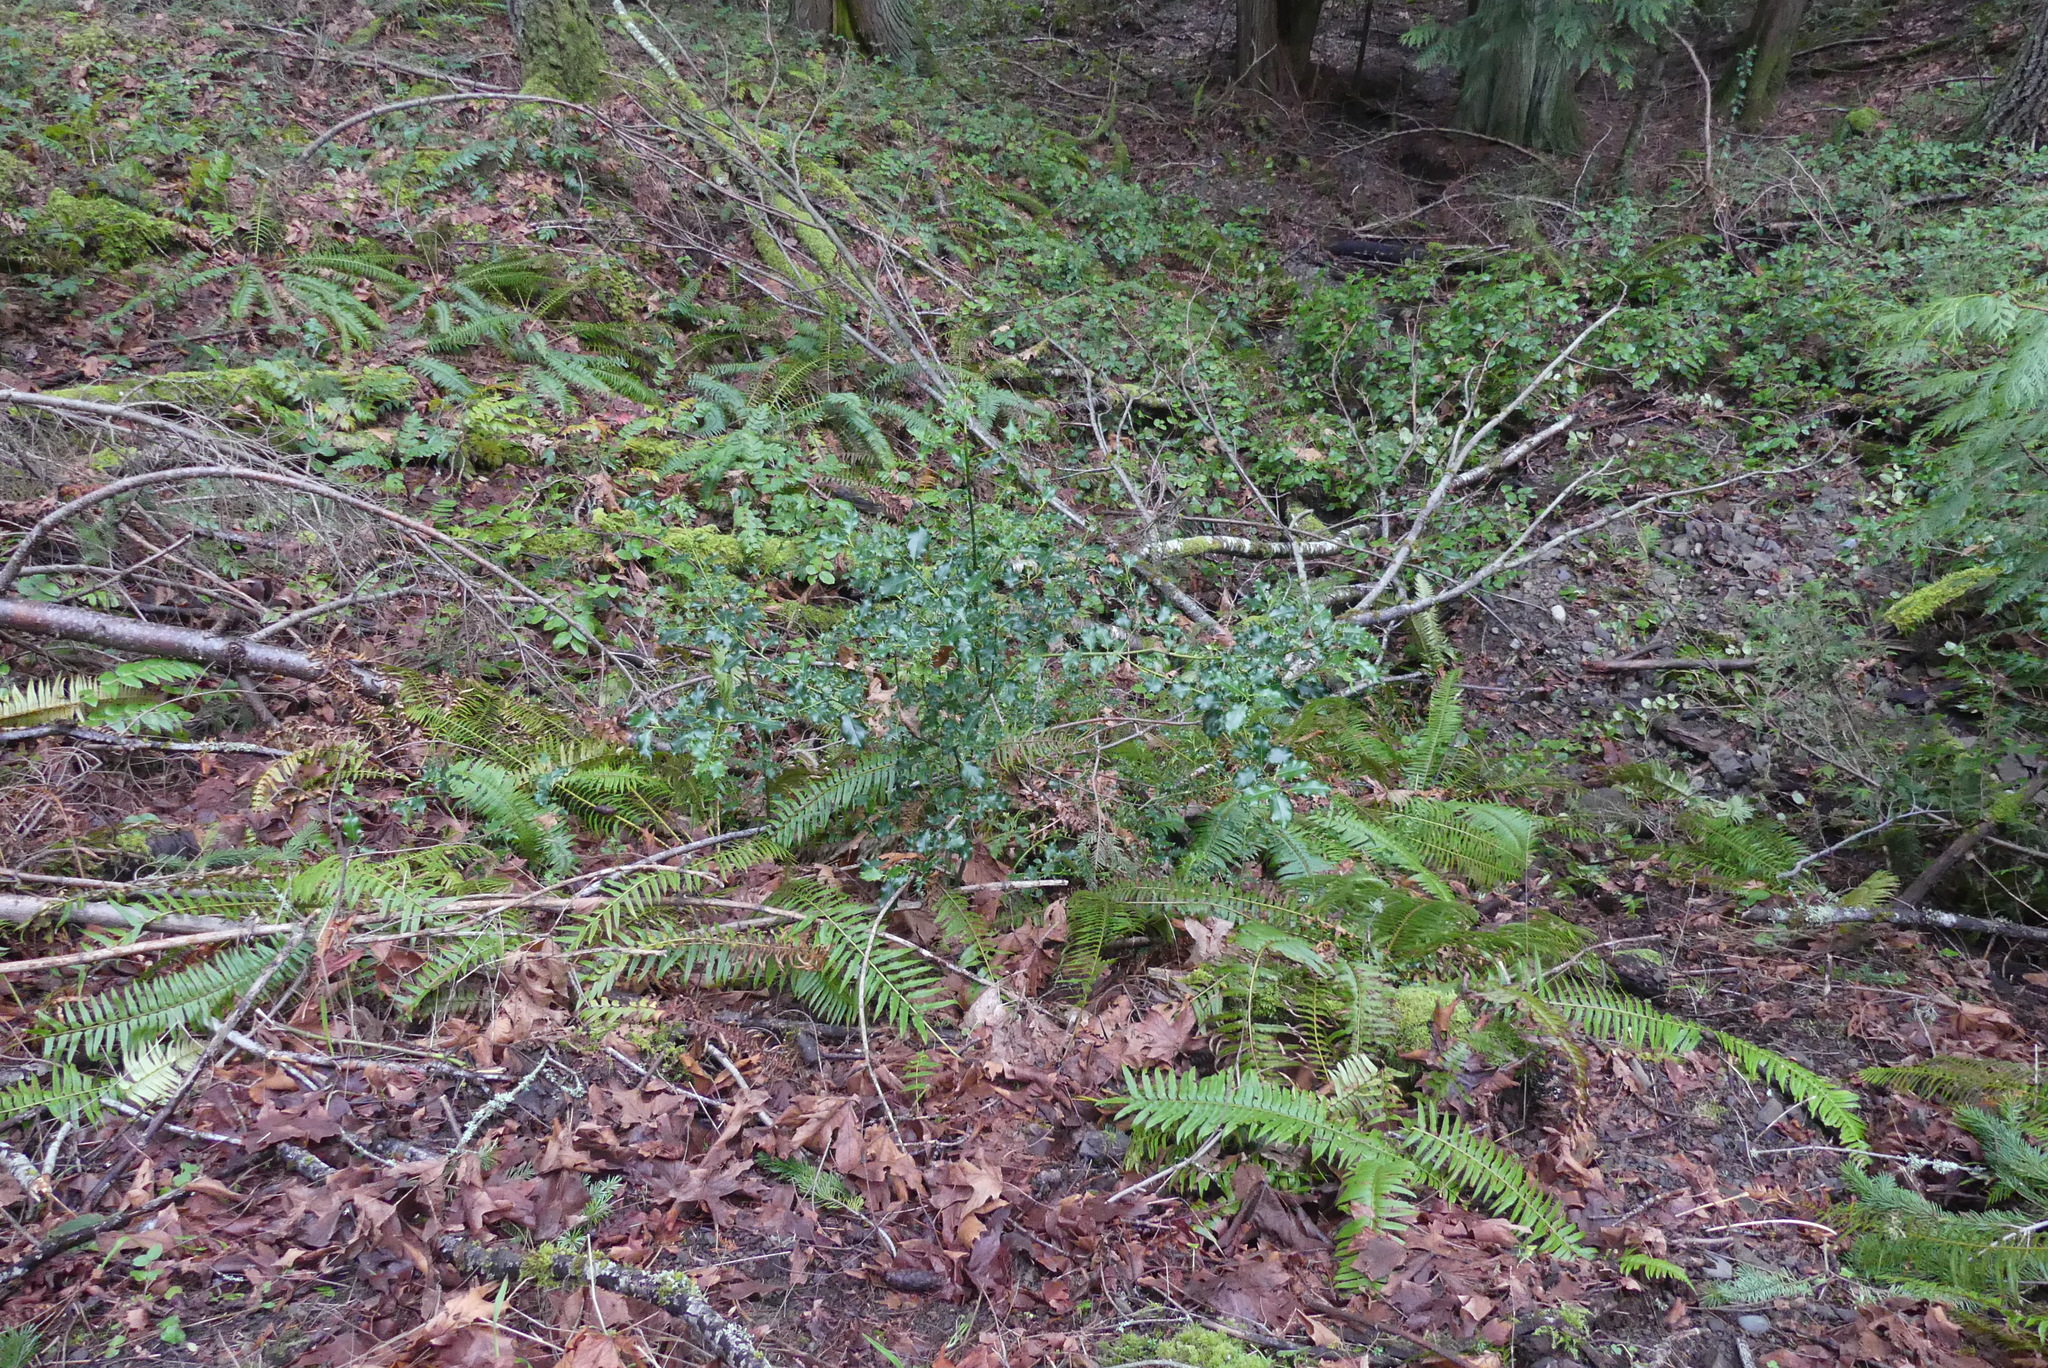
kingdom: Plantae
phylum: Tracheophyta
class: Magnoliopsida
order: Aquifoliales
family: Aquifoliaceae
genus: Ilex
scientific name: Ilex aquifolium
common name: English holly
